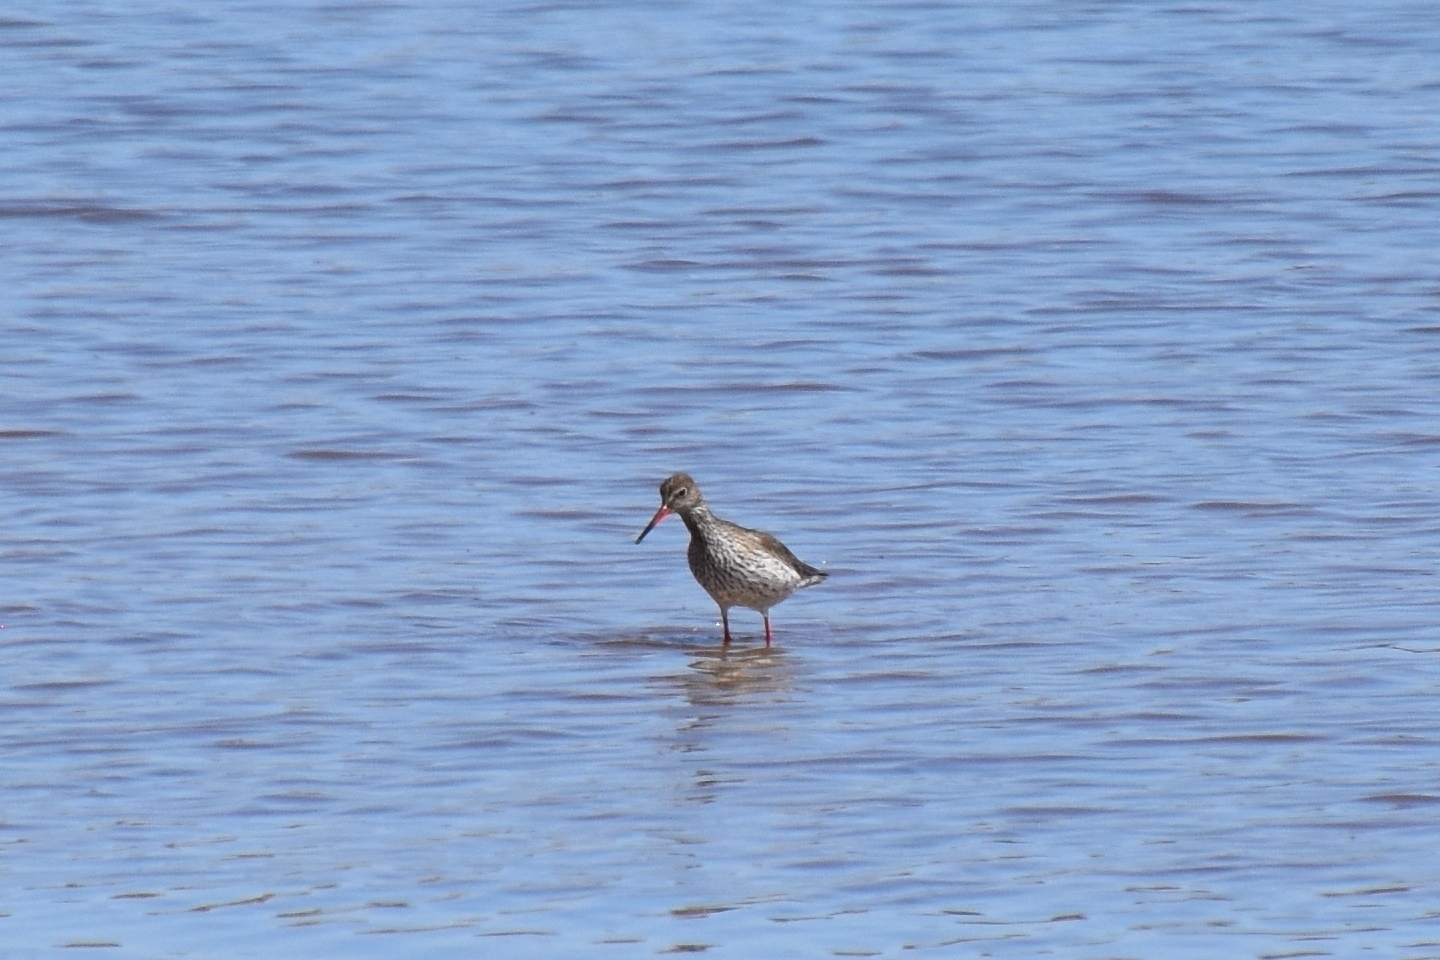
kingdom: Animalia
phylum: Chordata
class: Aves
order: Charadriiformes
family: Scolopacidae
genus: Tringa
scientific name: Tringa totanus
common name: Common redshank
